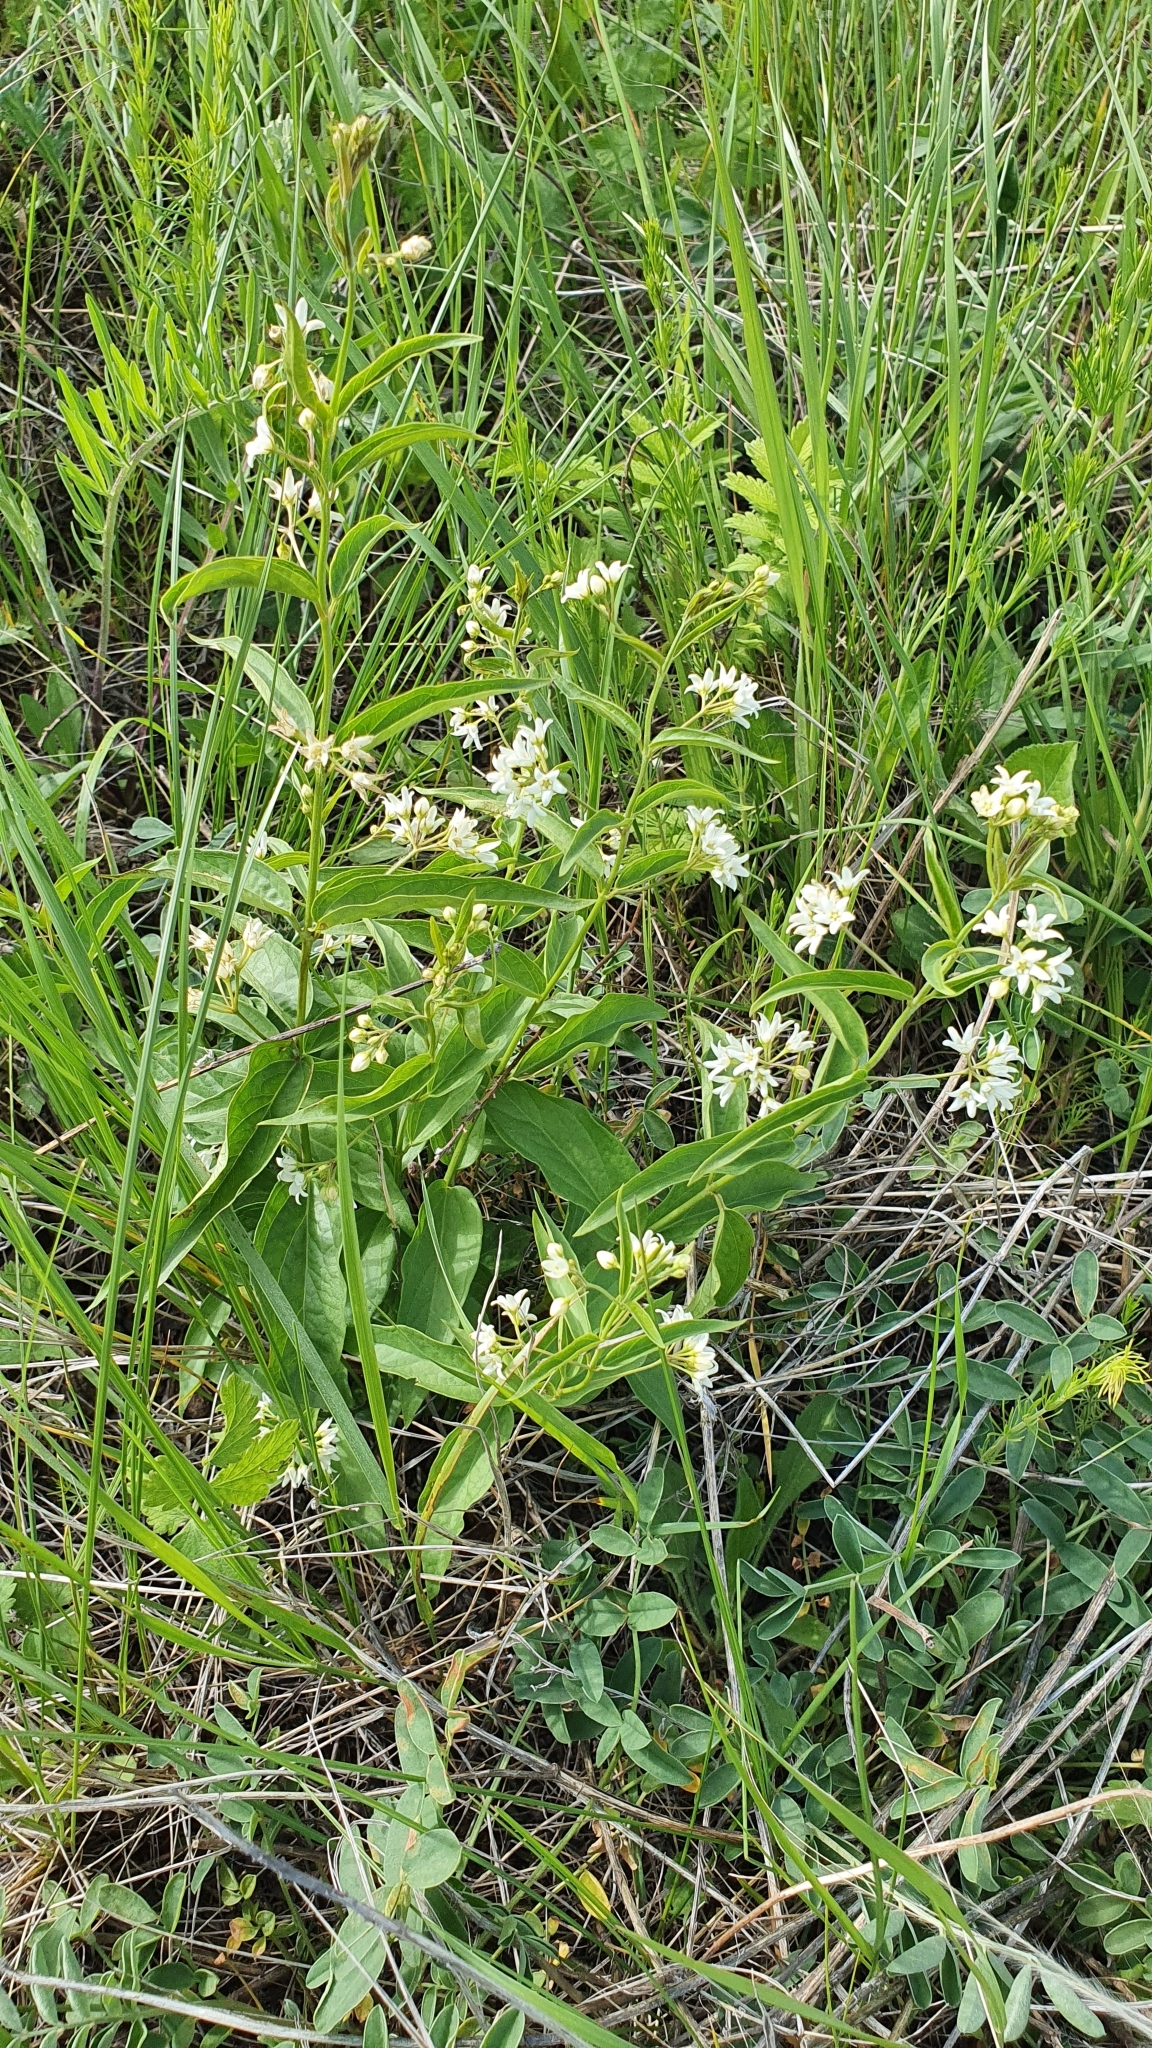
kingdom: Plantae
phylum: Tracheophyta
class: Magnoliopsida
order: Gentianales
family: Apocynaceae
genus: Vincetoxicum
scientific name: Vincetoxicum hirundinaria
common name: White swallowwort
